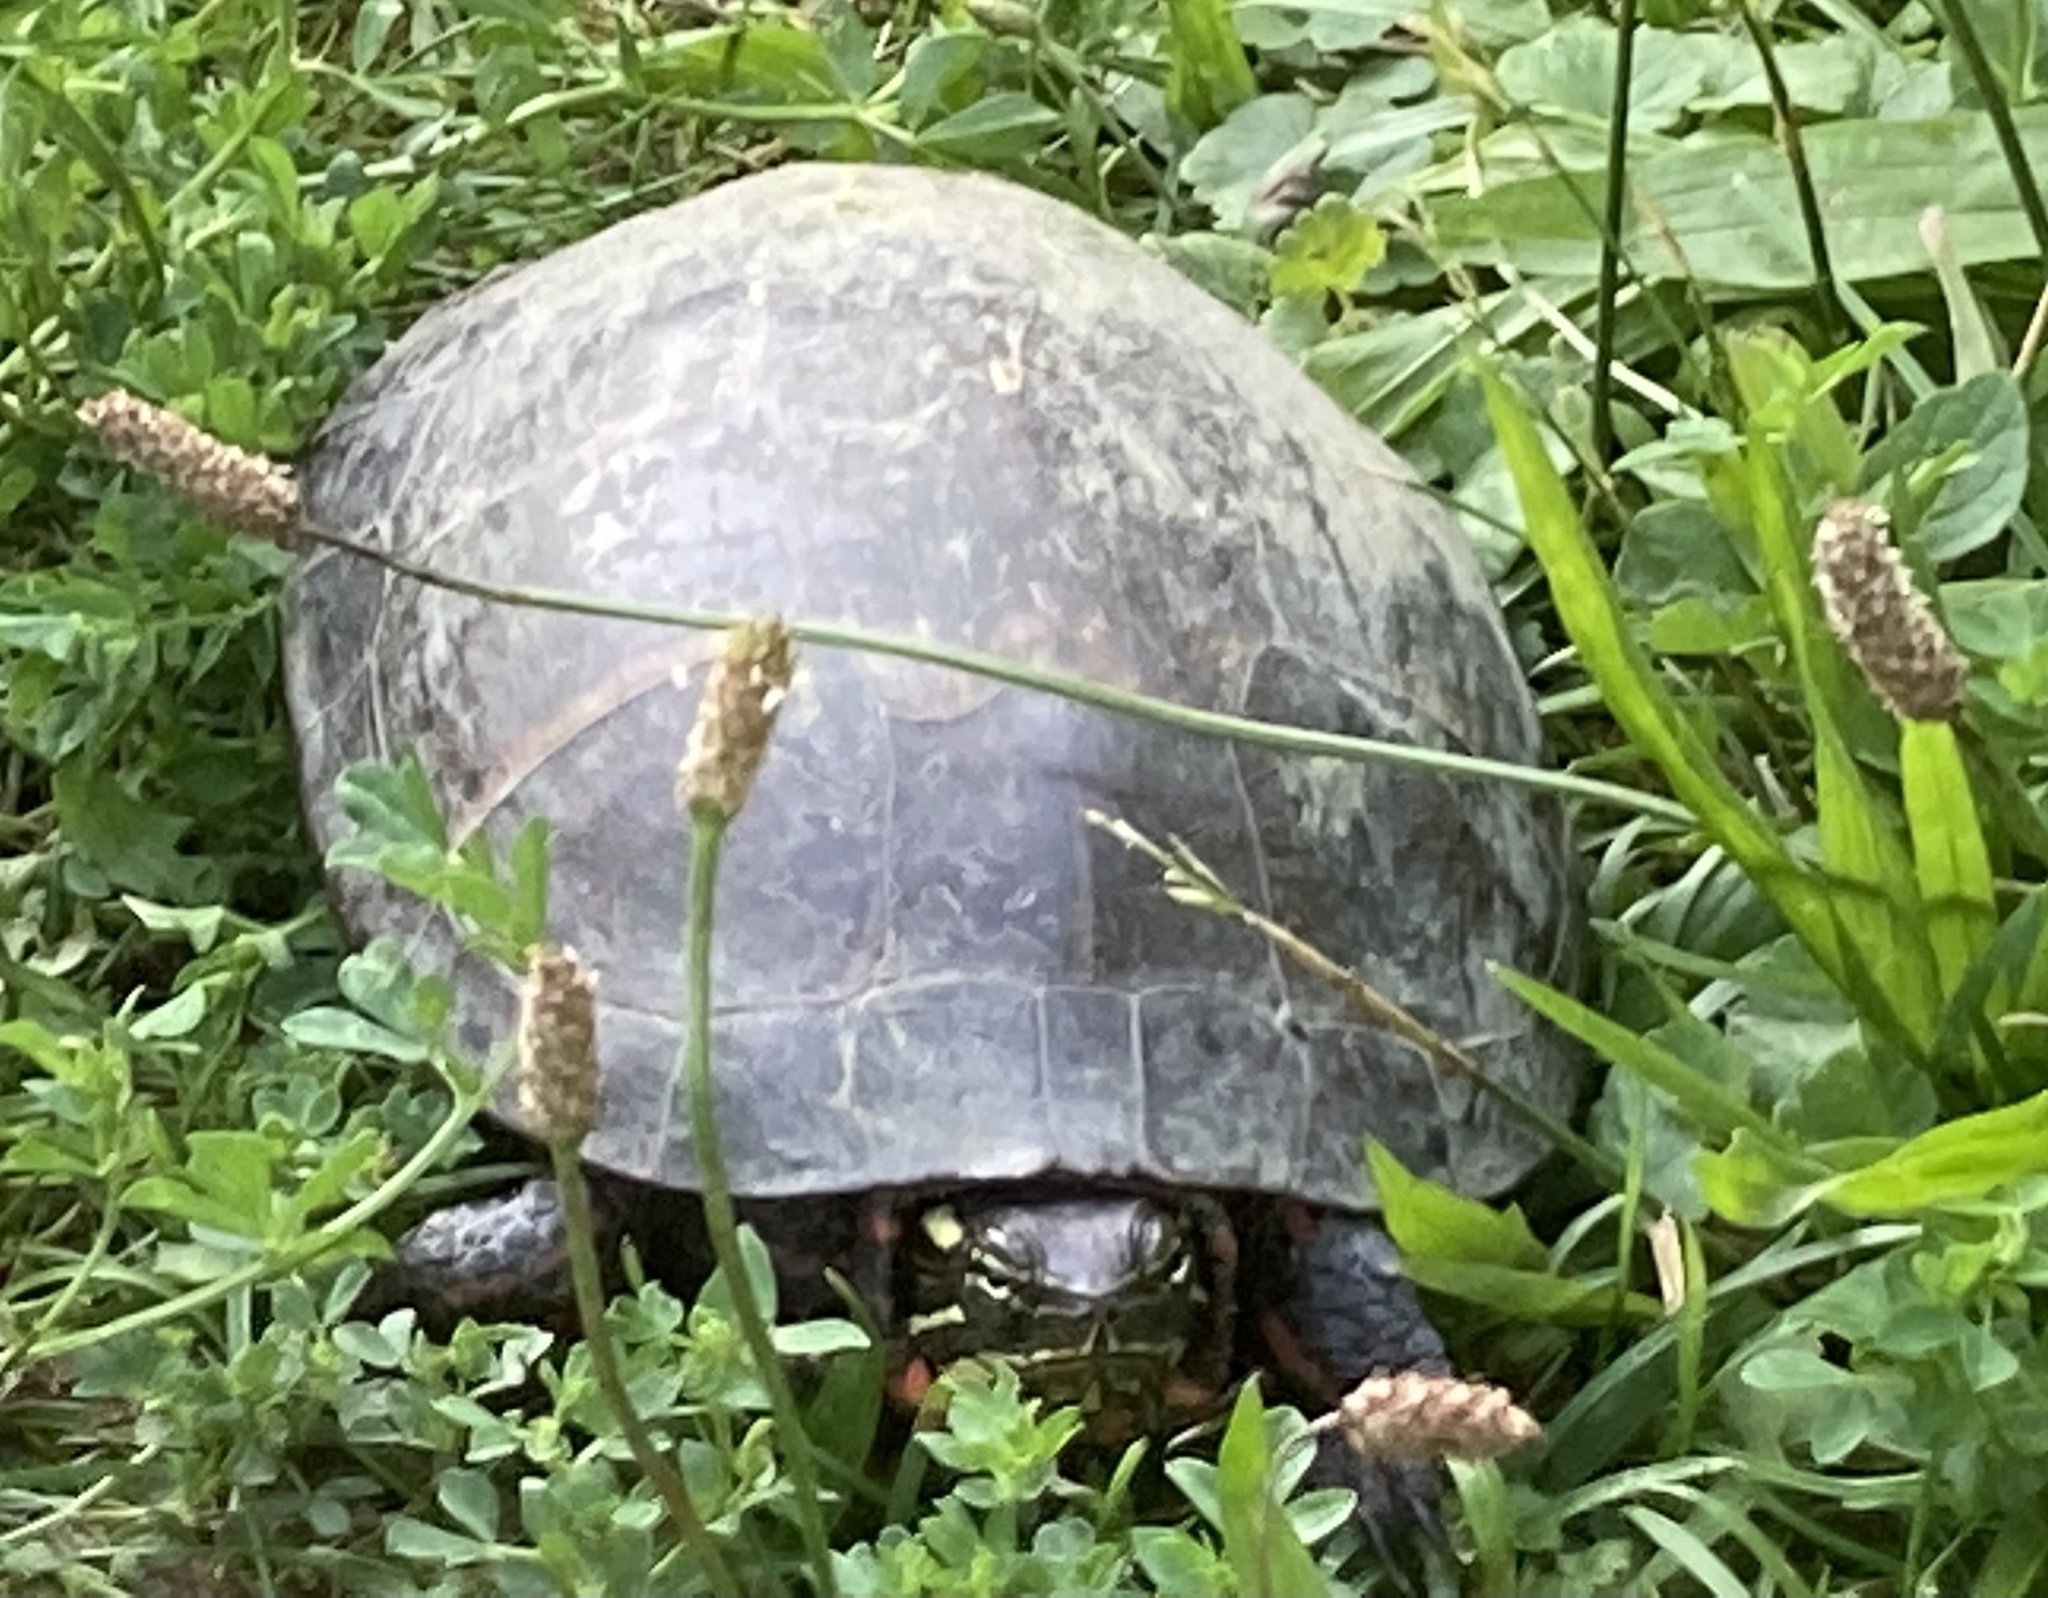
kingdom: Animalia
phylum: Chordata
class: Testudines
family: Emydidae
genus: Chrysemys
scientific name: Chrysemys picta
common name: Painted turtle
